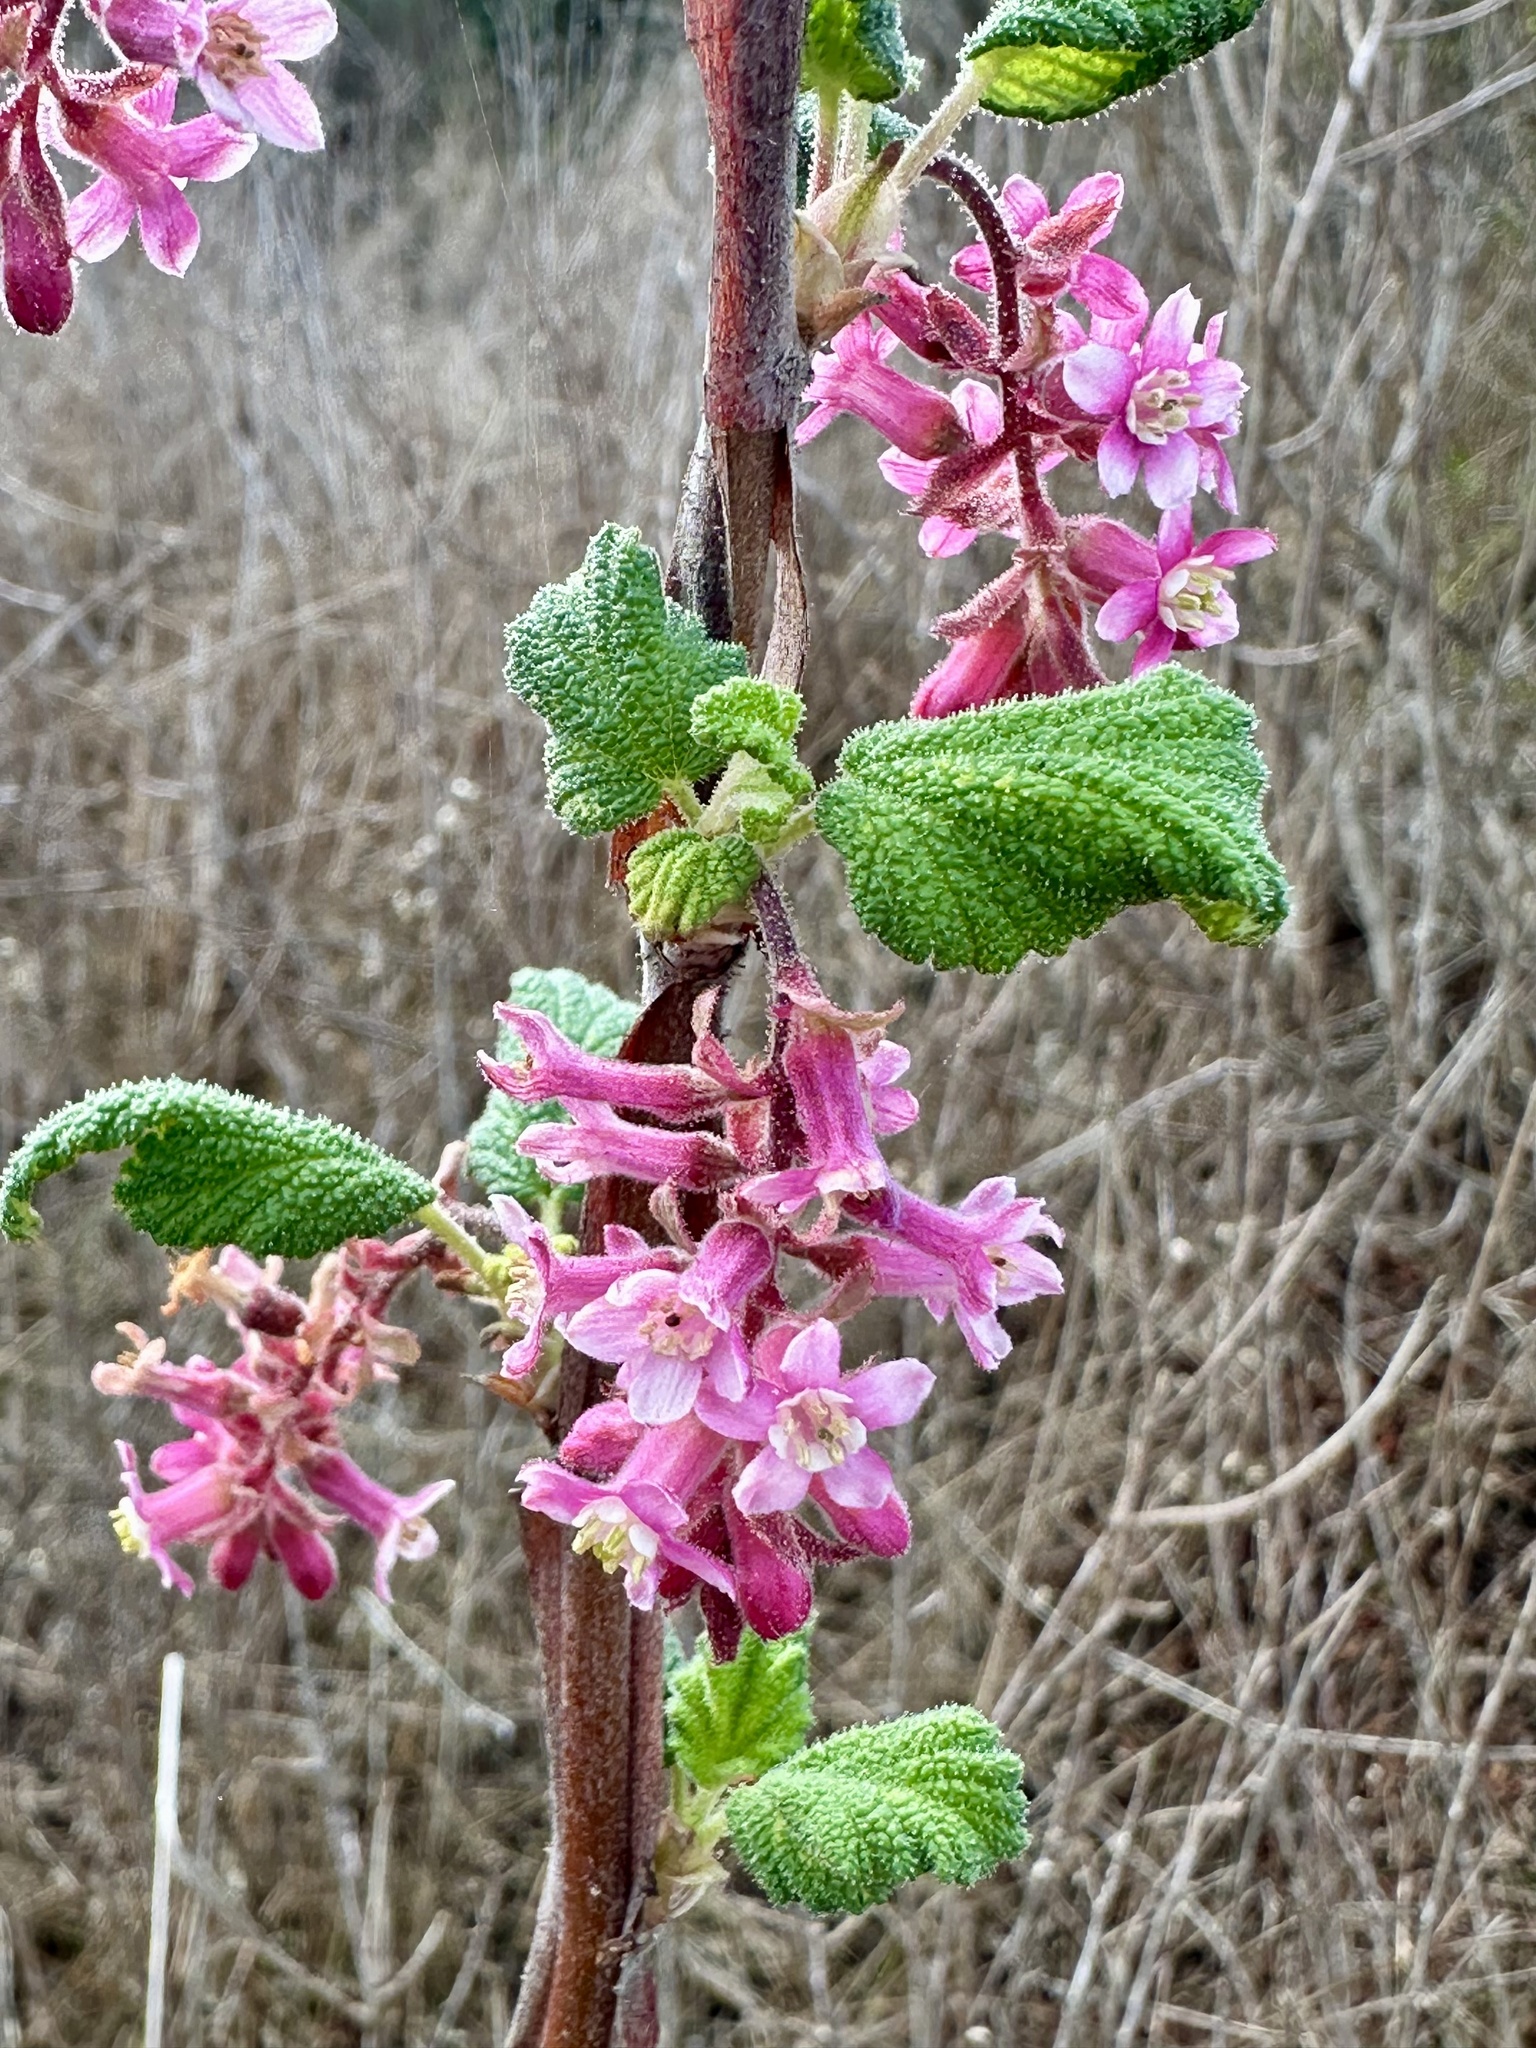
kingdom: Plantae
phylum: Tracheophyta
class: Magnoliopsida
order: Saxifragales
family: Grossulariaceae
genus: Ribes
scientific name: Ribes malvaceum
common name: Chaparral currant
